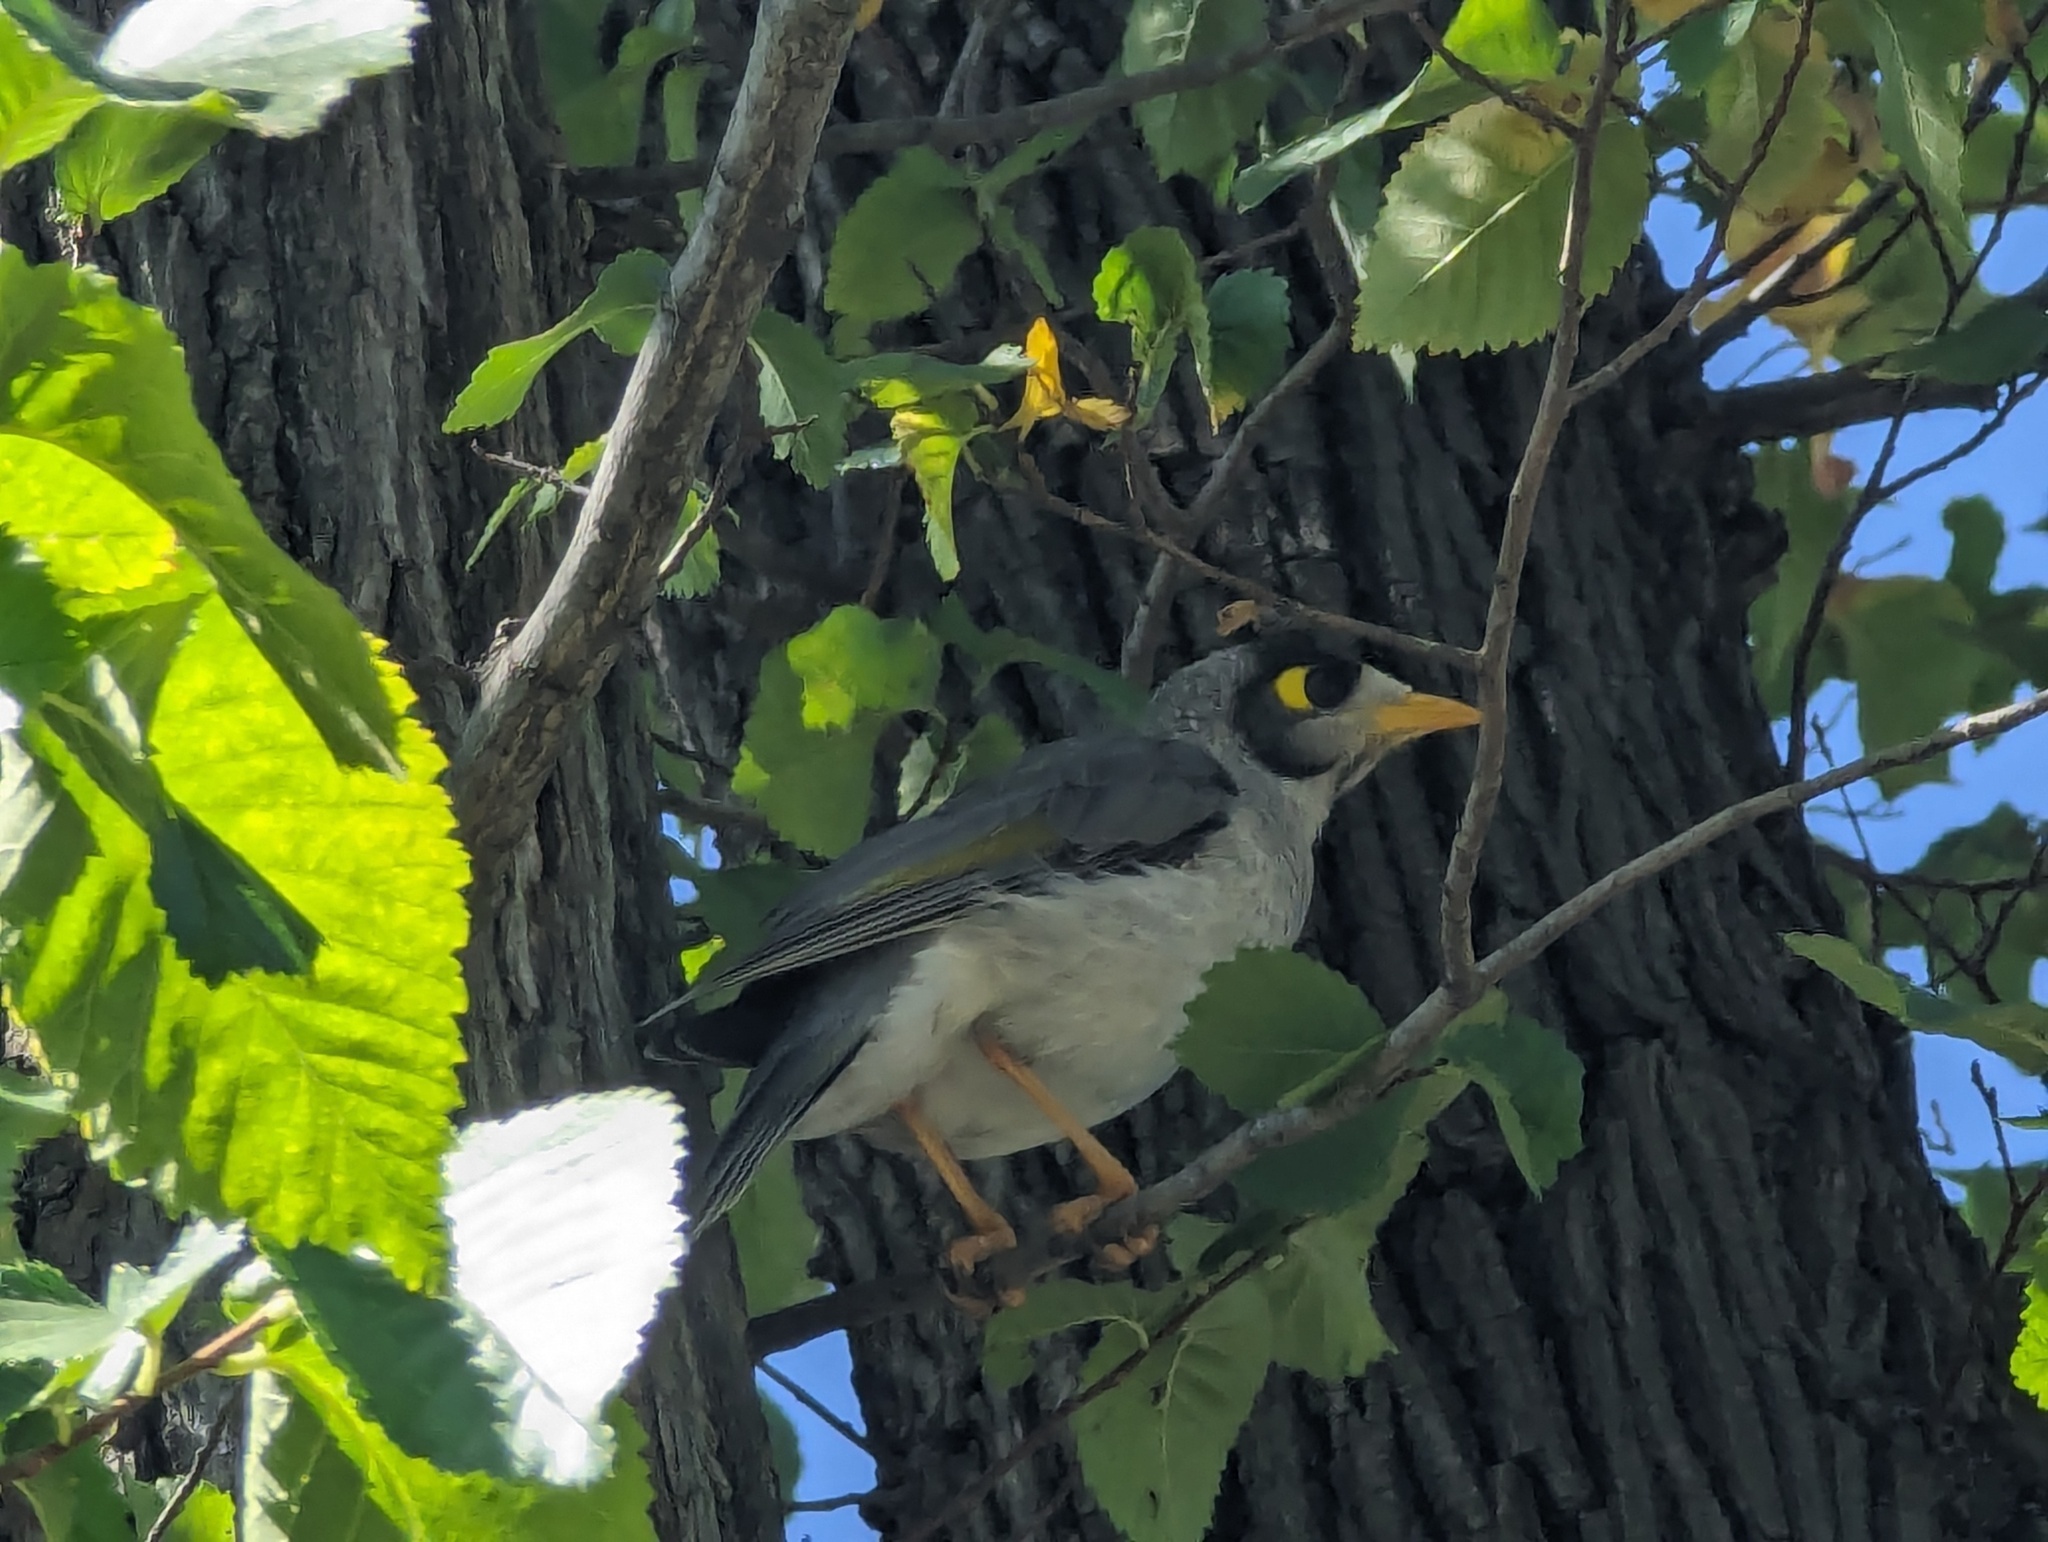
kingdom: Animalia
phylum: Chordata
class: Aves
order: Passeriformes
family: Meliphagidae
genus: Manorina
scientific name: Manorina melanocephala
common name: Noisy miner
